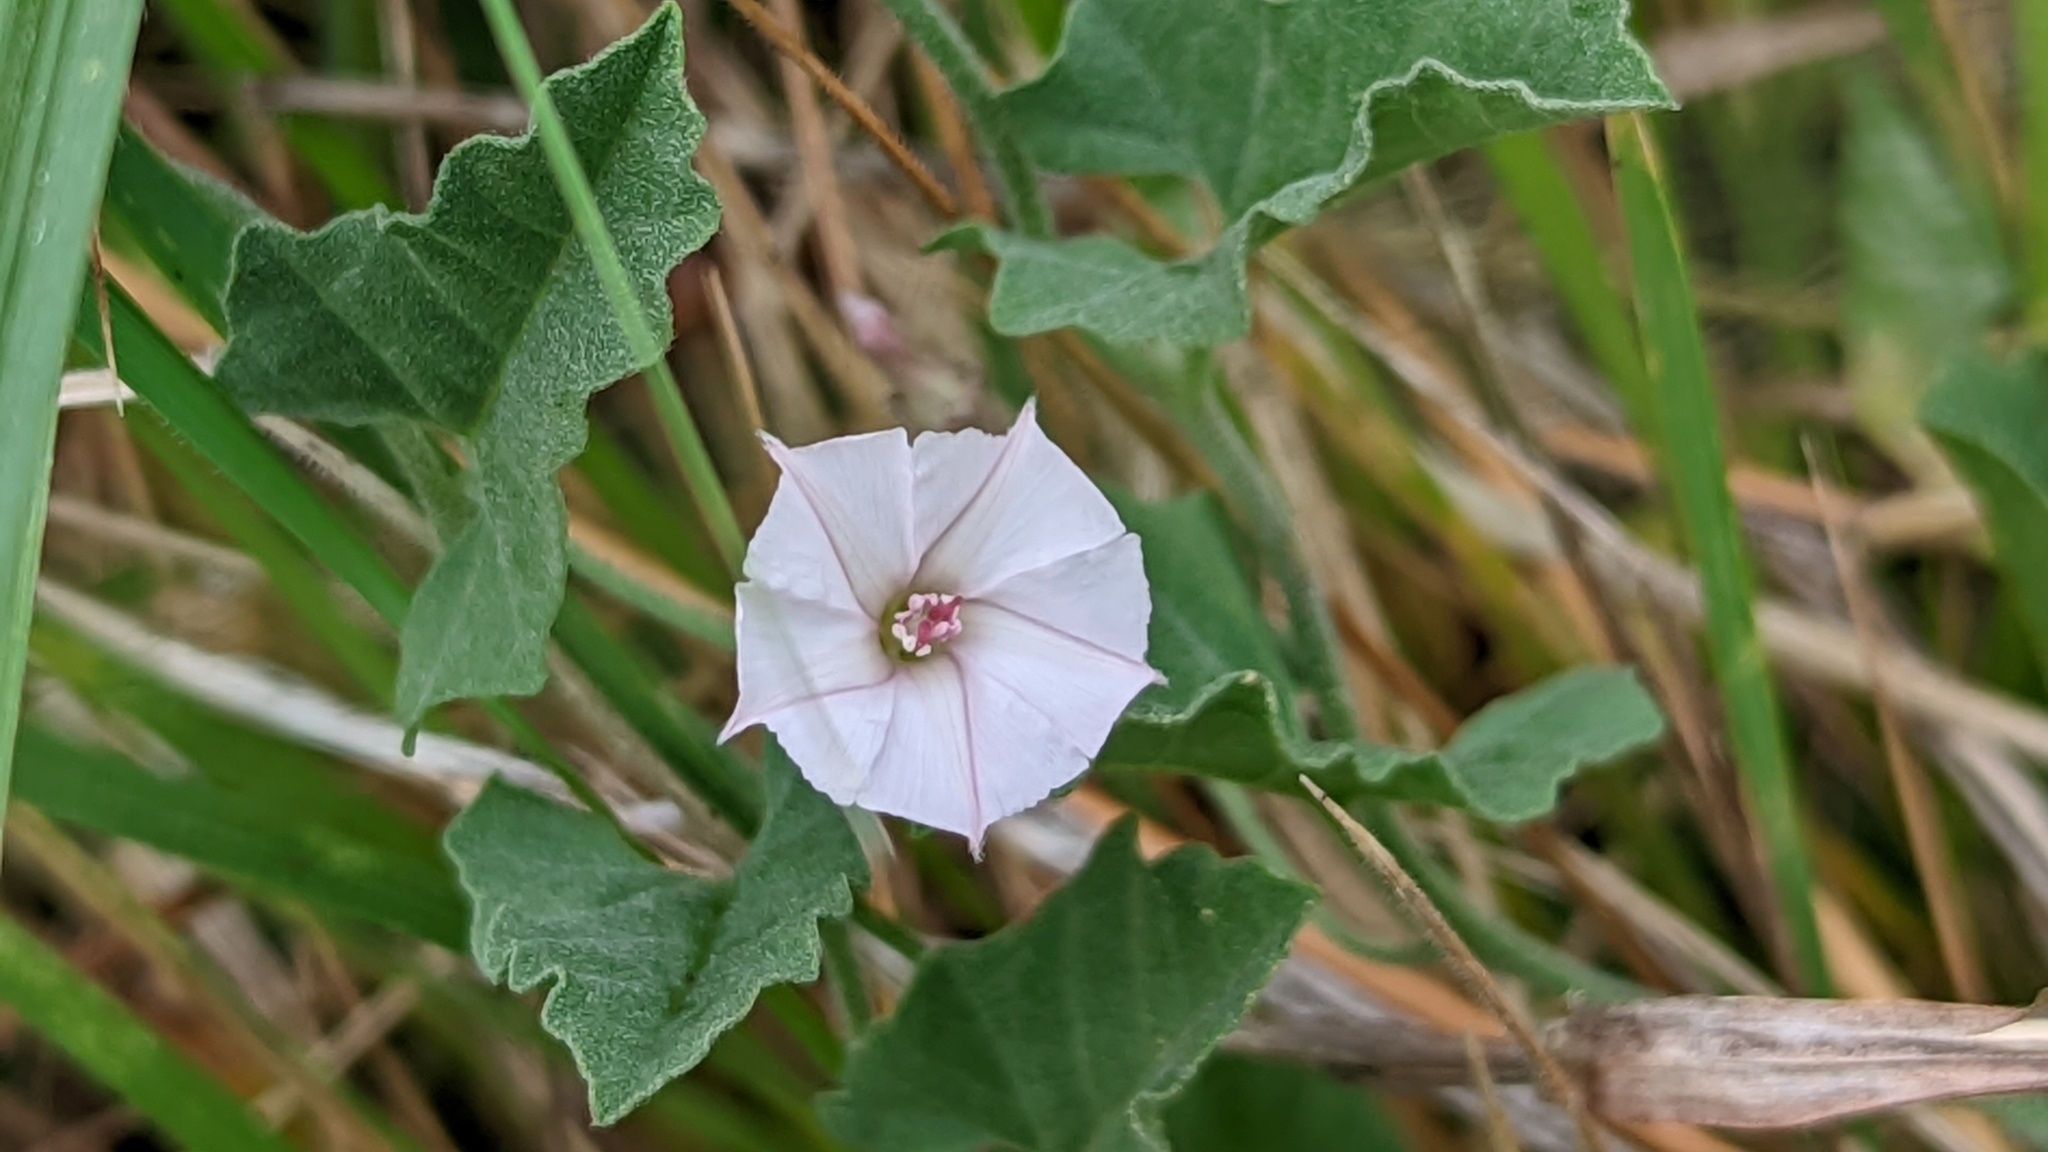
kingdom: Plantae
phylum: Tracheophyta
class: Magnoliopsida
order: Solanales
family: Convolvulaceae
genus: Convolvulus
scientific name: Convolvulus equitans
